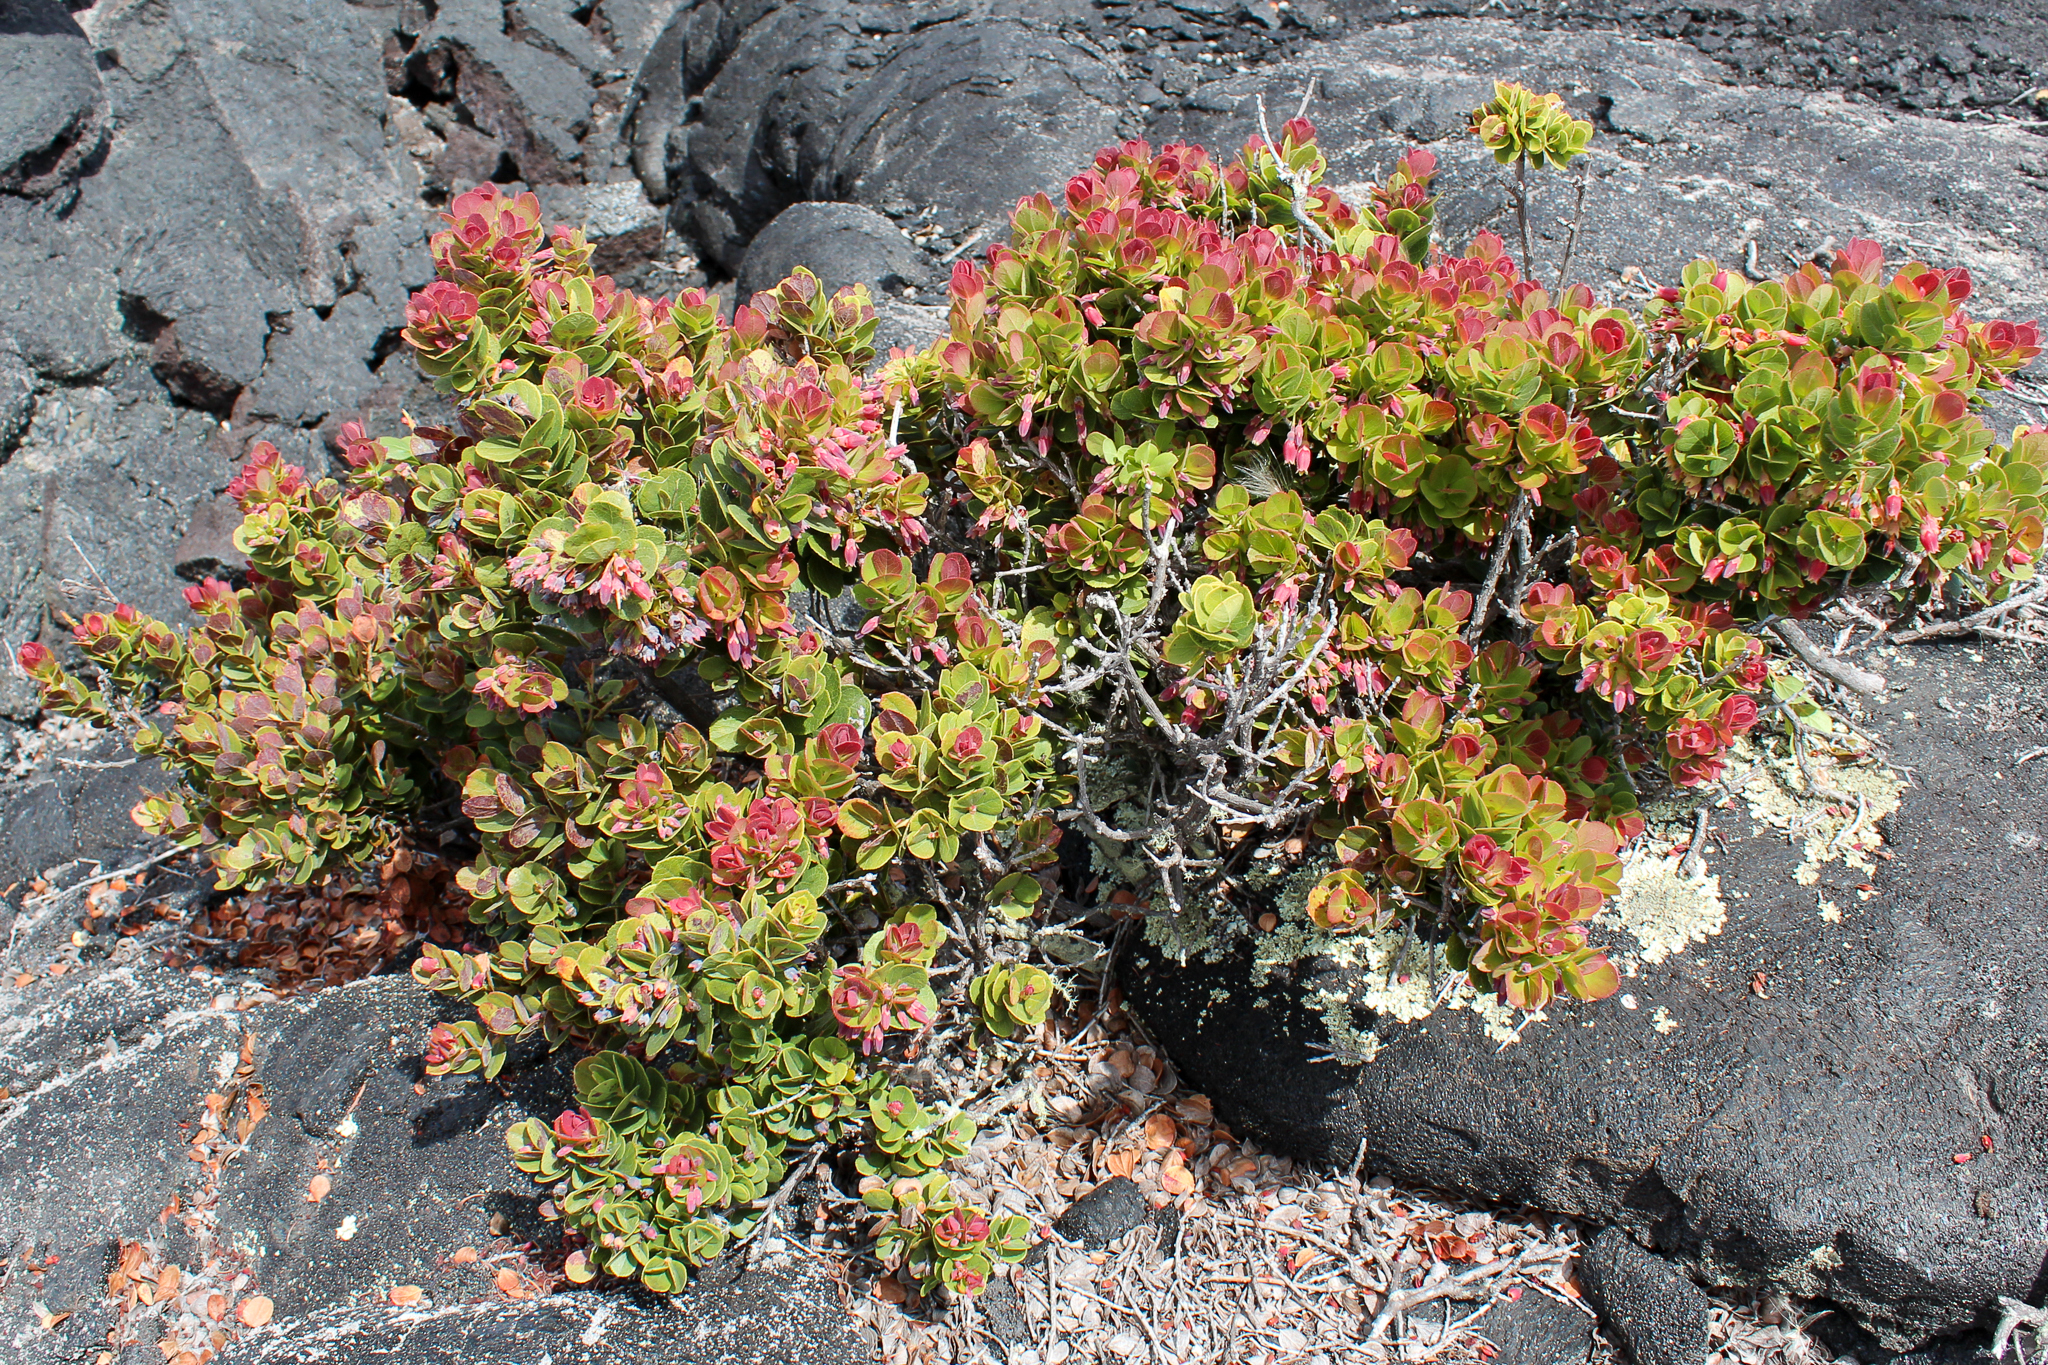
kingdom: Plantae
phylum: Tracheophyta
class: Magnoliopsida
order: Ericales
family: Ericaceae
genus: Vaccinium
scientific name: Vaccinium reticulatum
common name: Ohelo
